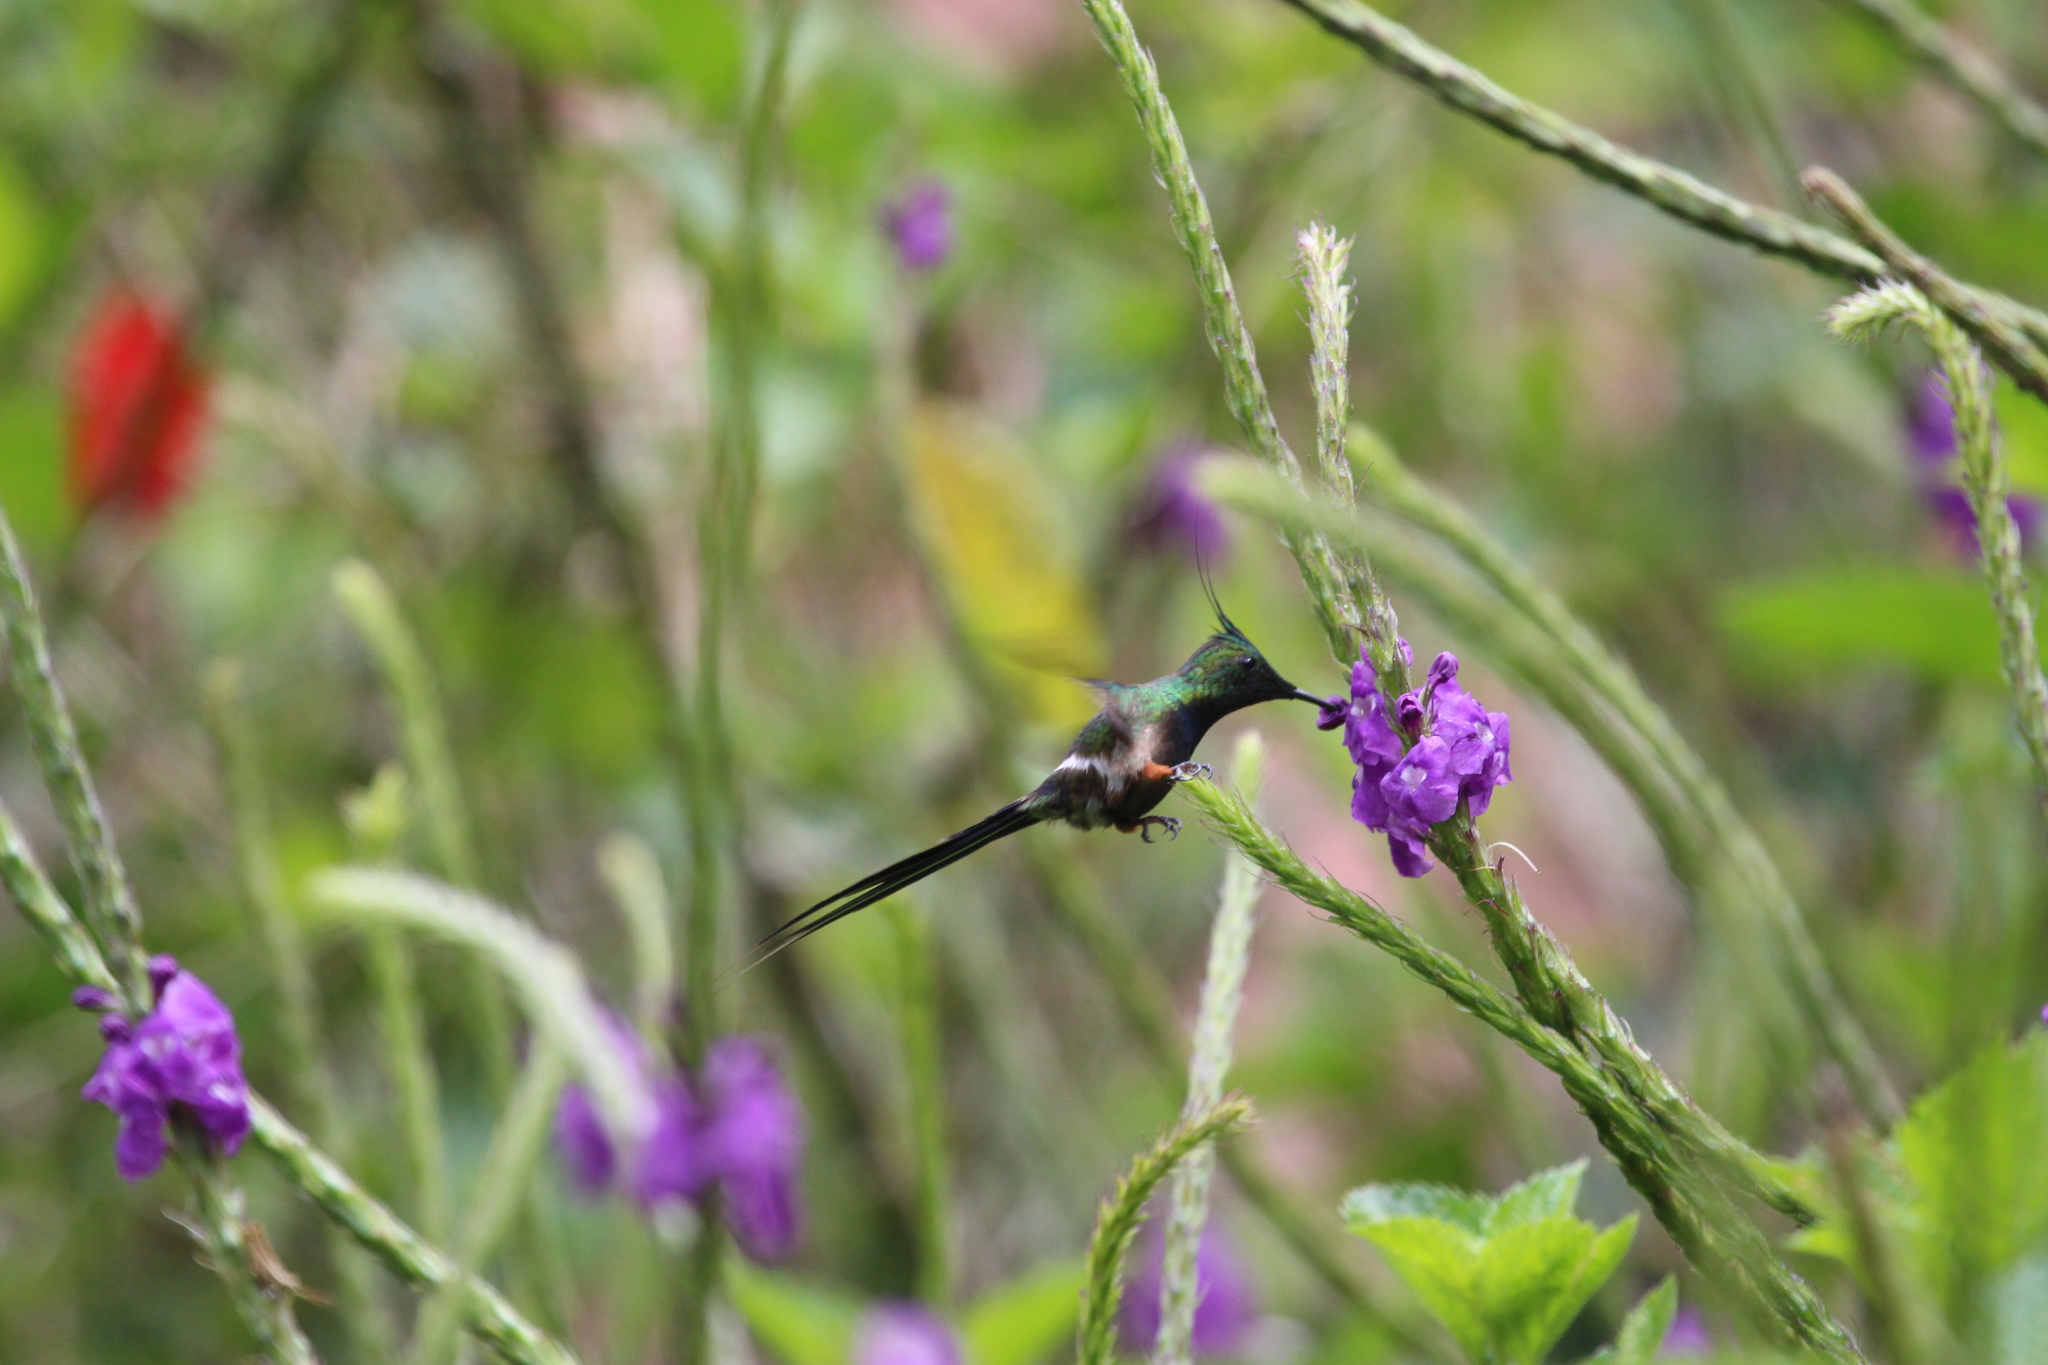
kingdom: Animalia
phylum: Chordata
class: Aves
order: Apodiformes
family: Trochilidae
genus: Discosura
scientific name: Discosura popelairii
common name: Wire-crested thorntail
